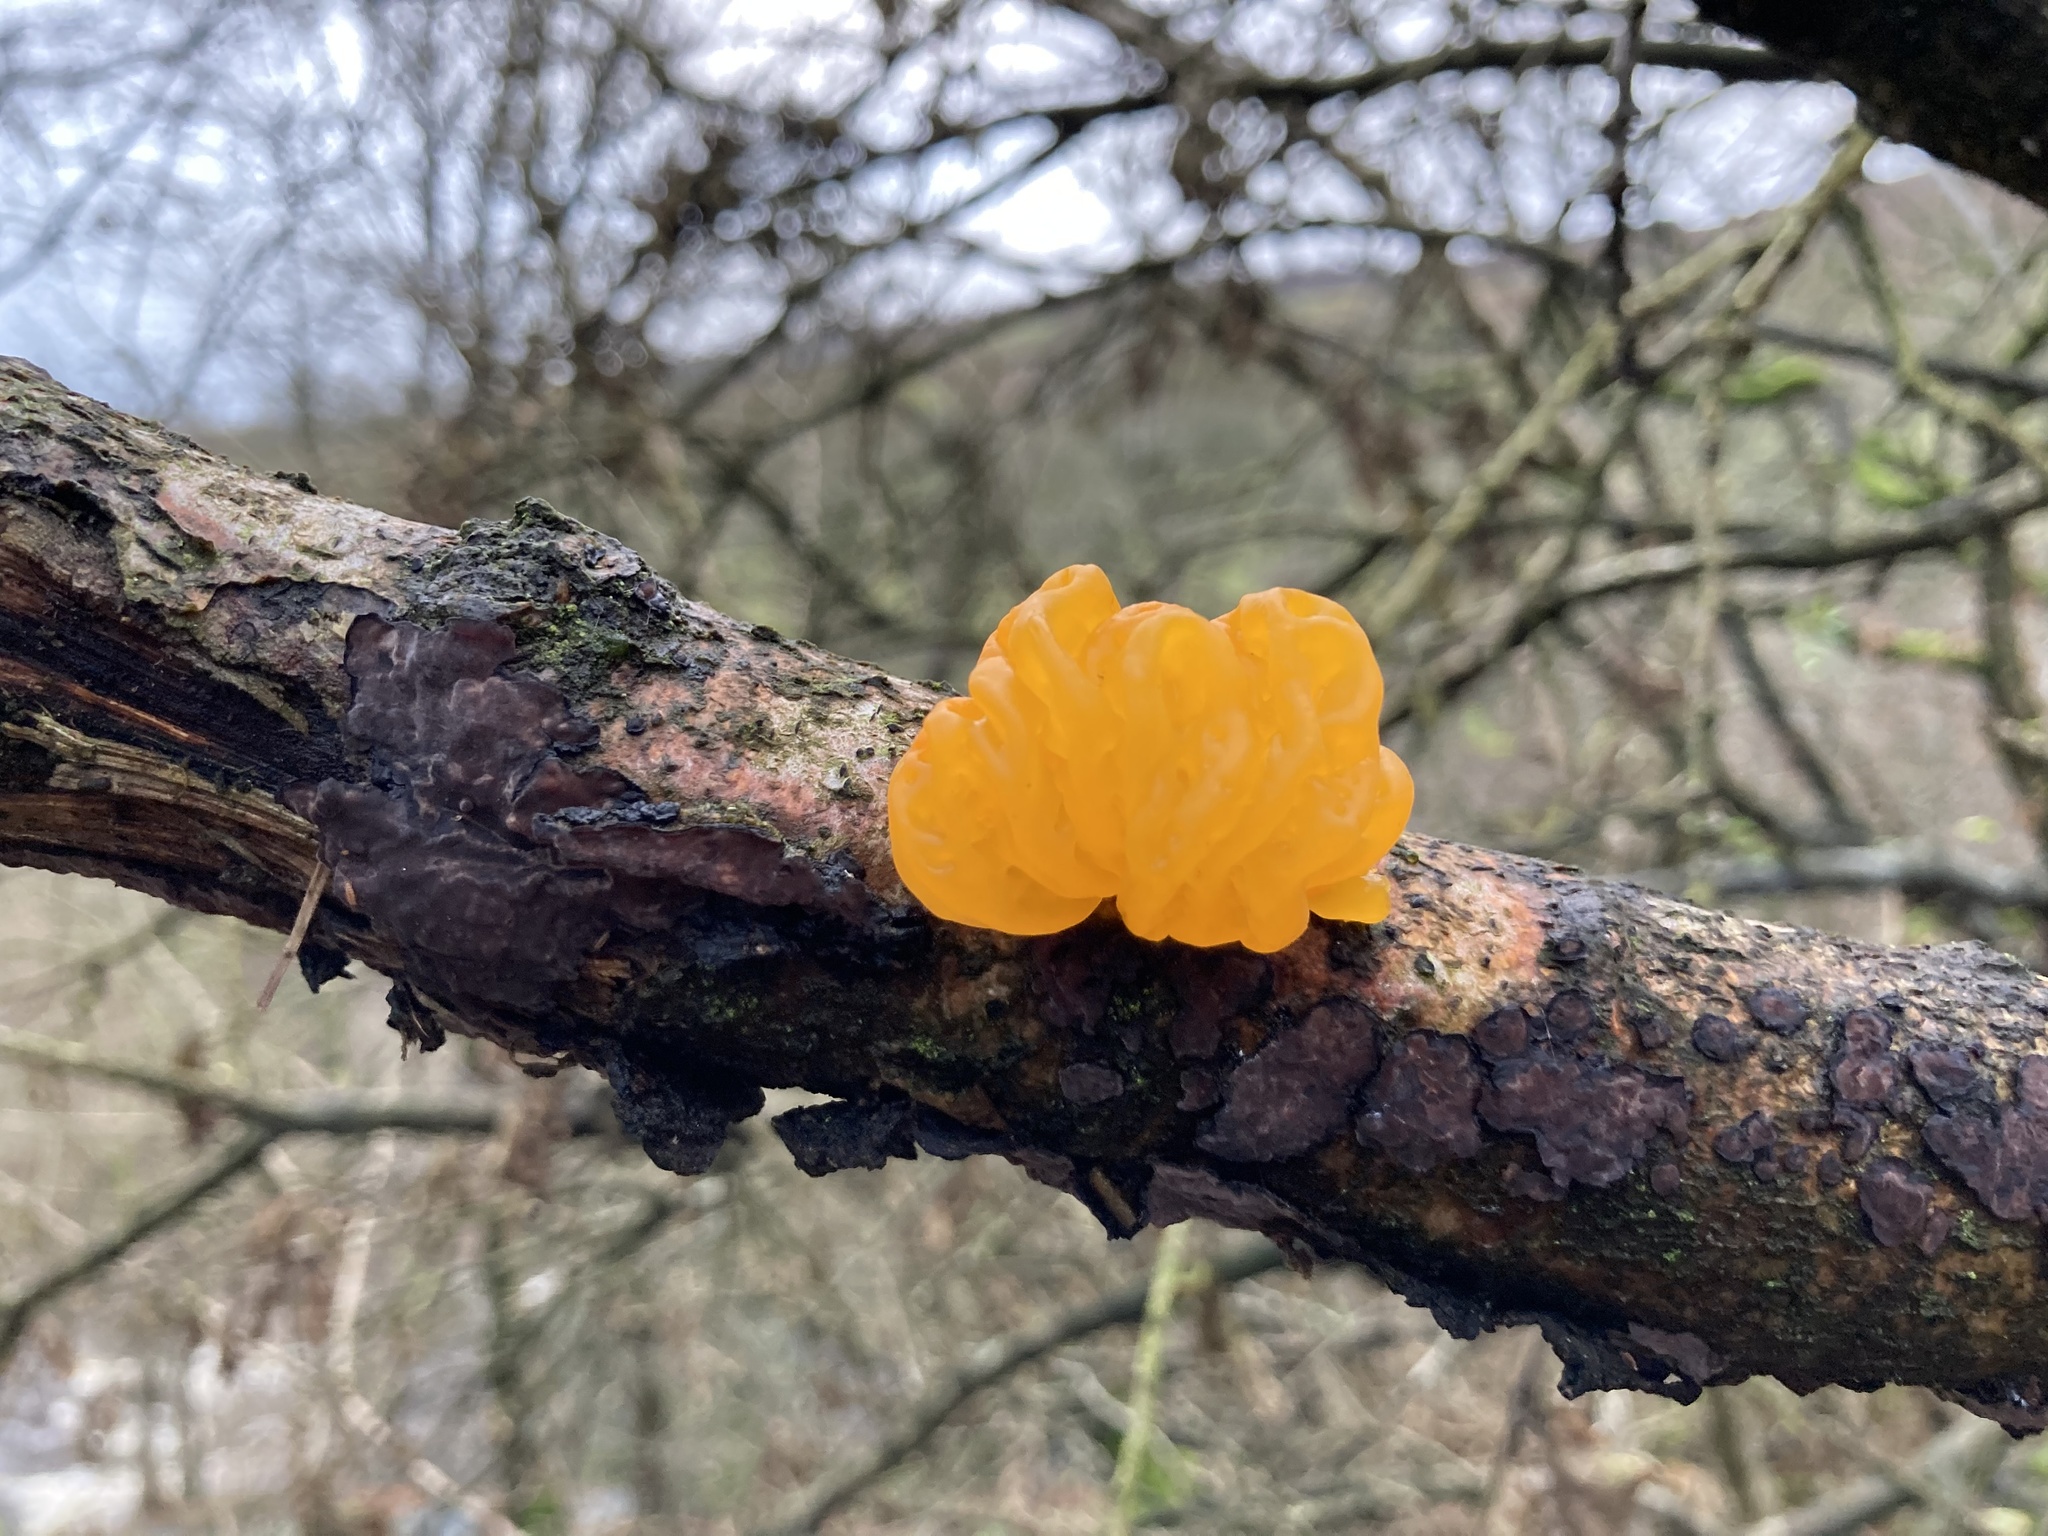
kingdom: Fungi
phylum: Basidiomycota
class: Tremellomycetes
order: Tremellales
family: Tremellaceae
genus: Tremella
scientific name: Tremella mesenterica
